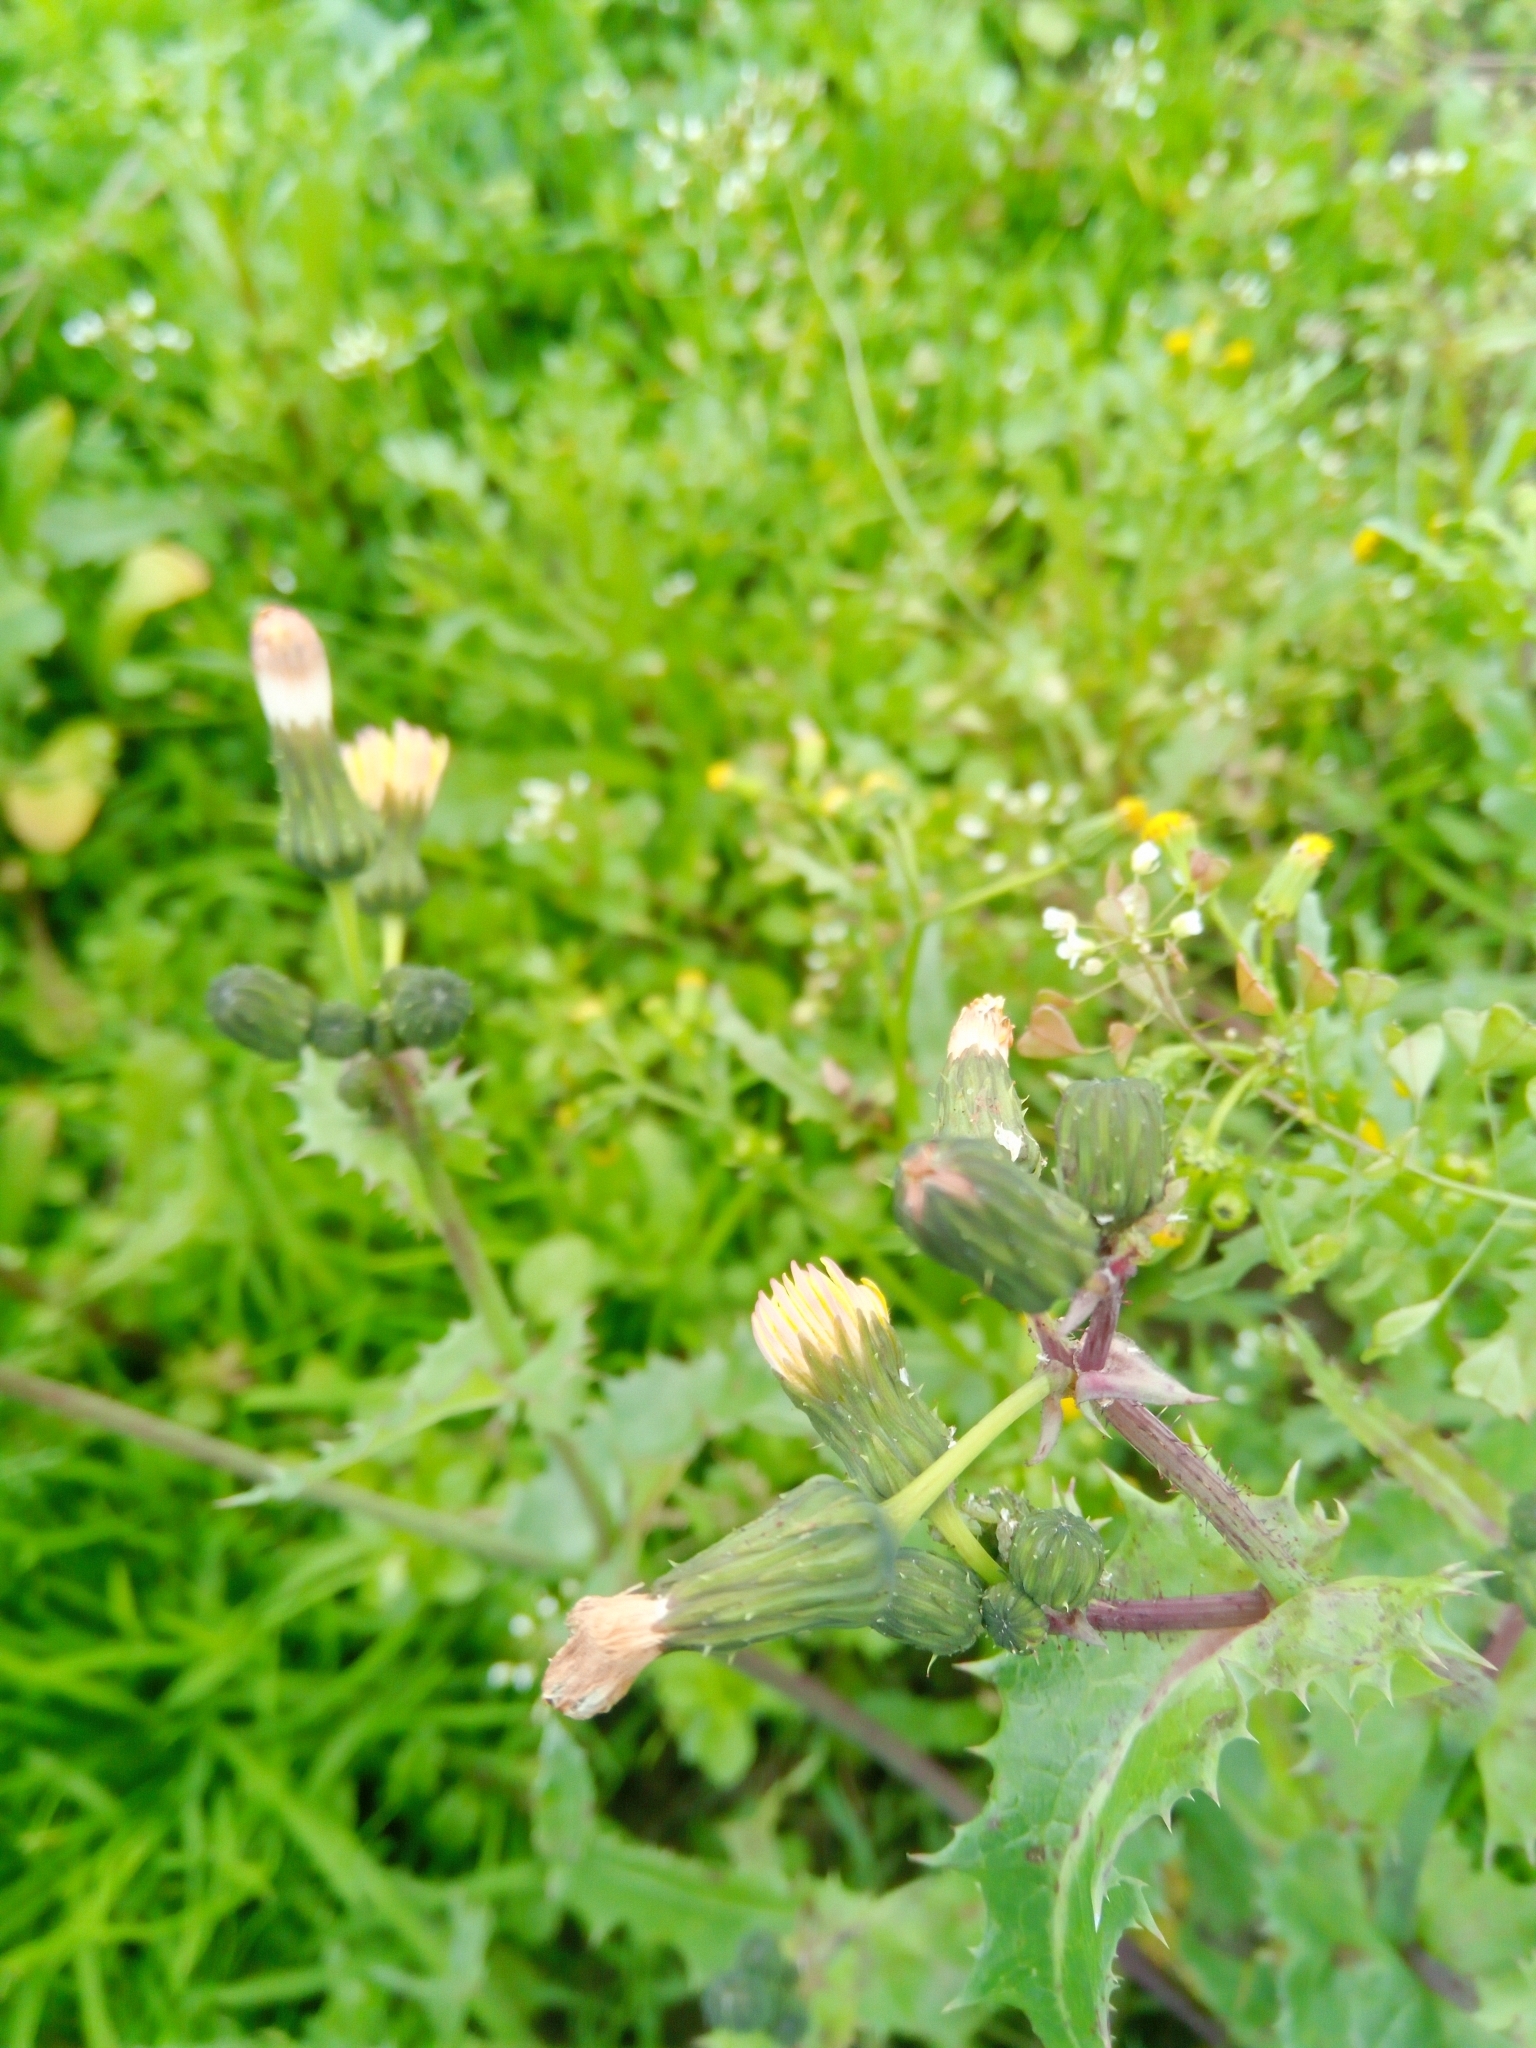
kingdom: Plantae
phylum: Tracheophyta
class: Magnoliopsida
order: Asterales
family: Asteraceae
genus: Sonchus
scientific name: Sonchus oleraceus
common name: Common sowthistle
